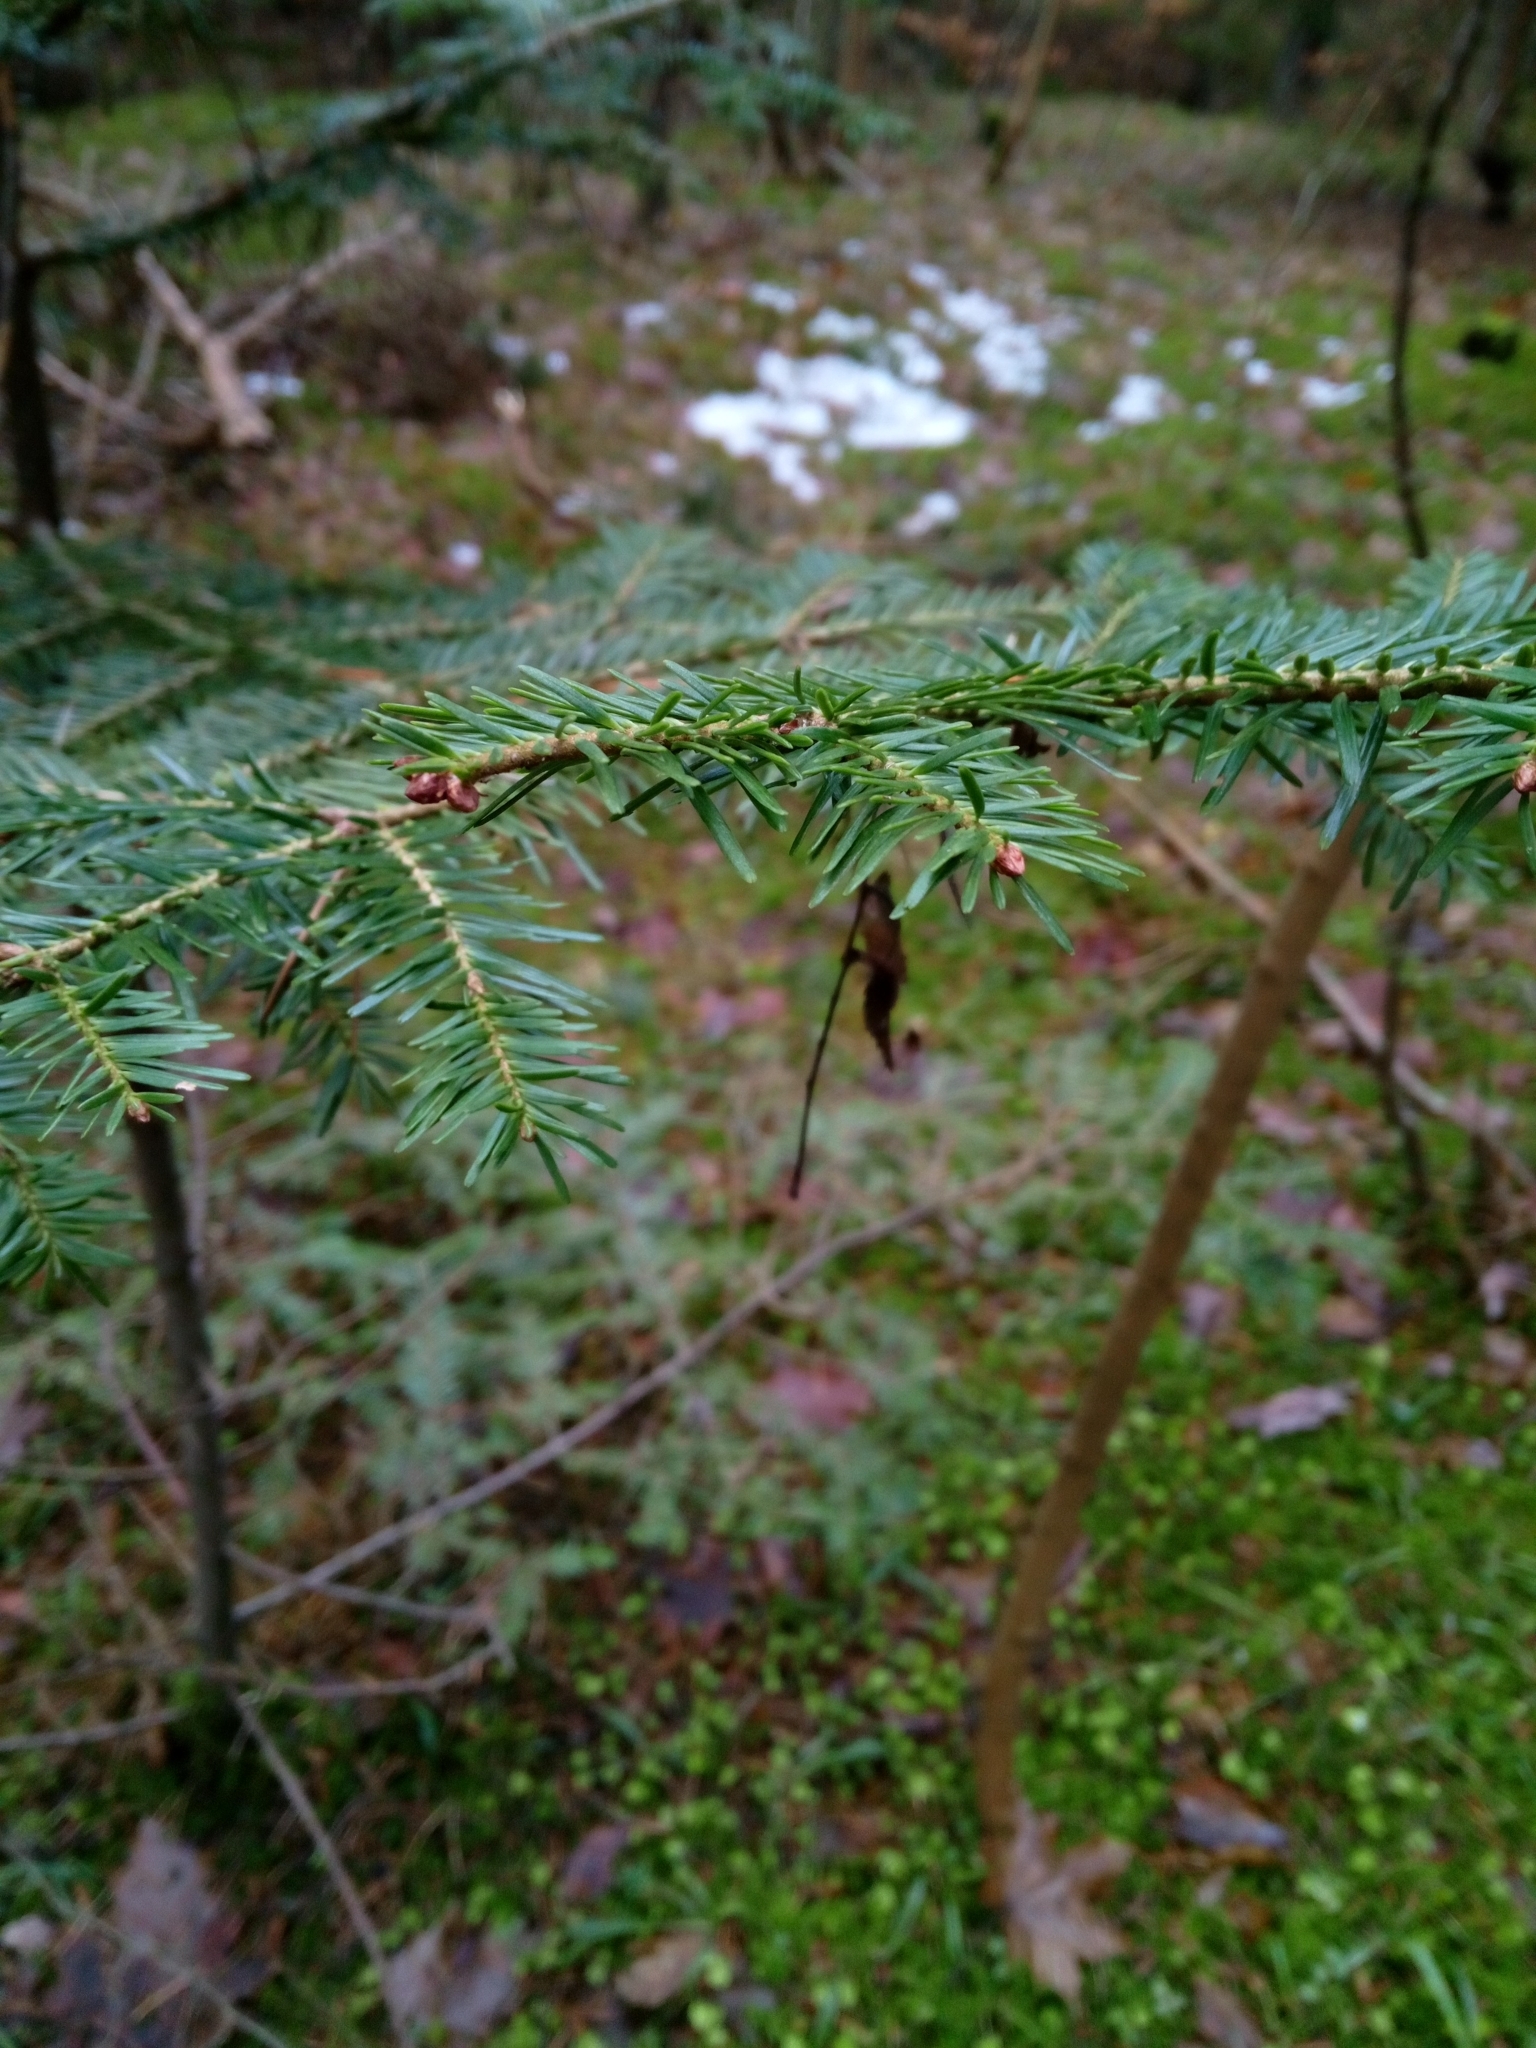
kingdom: Plantae
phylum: Tracheophyta
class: Pinopsida
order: Pinales
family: Pinaceae
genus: Abies
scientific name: Abies alba
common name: Silver fir
